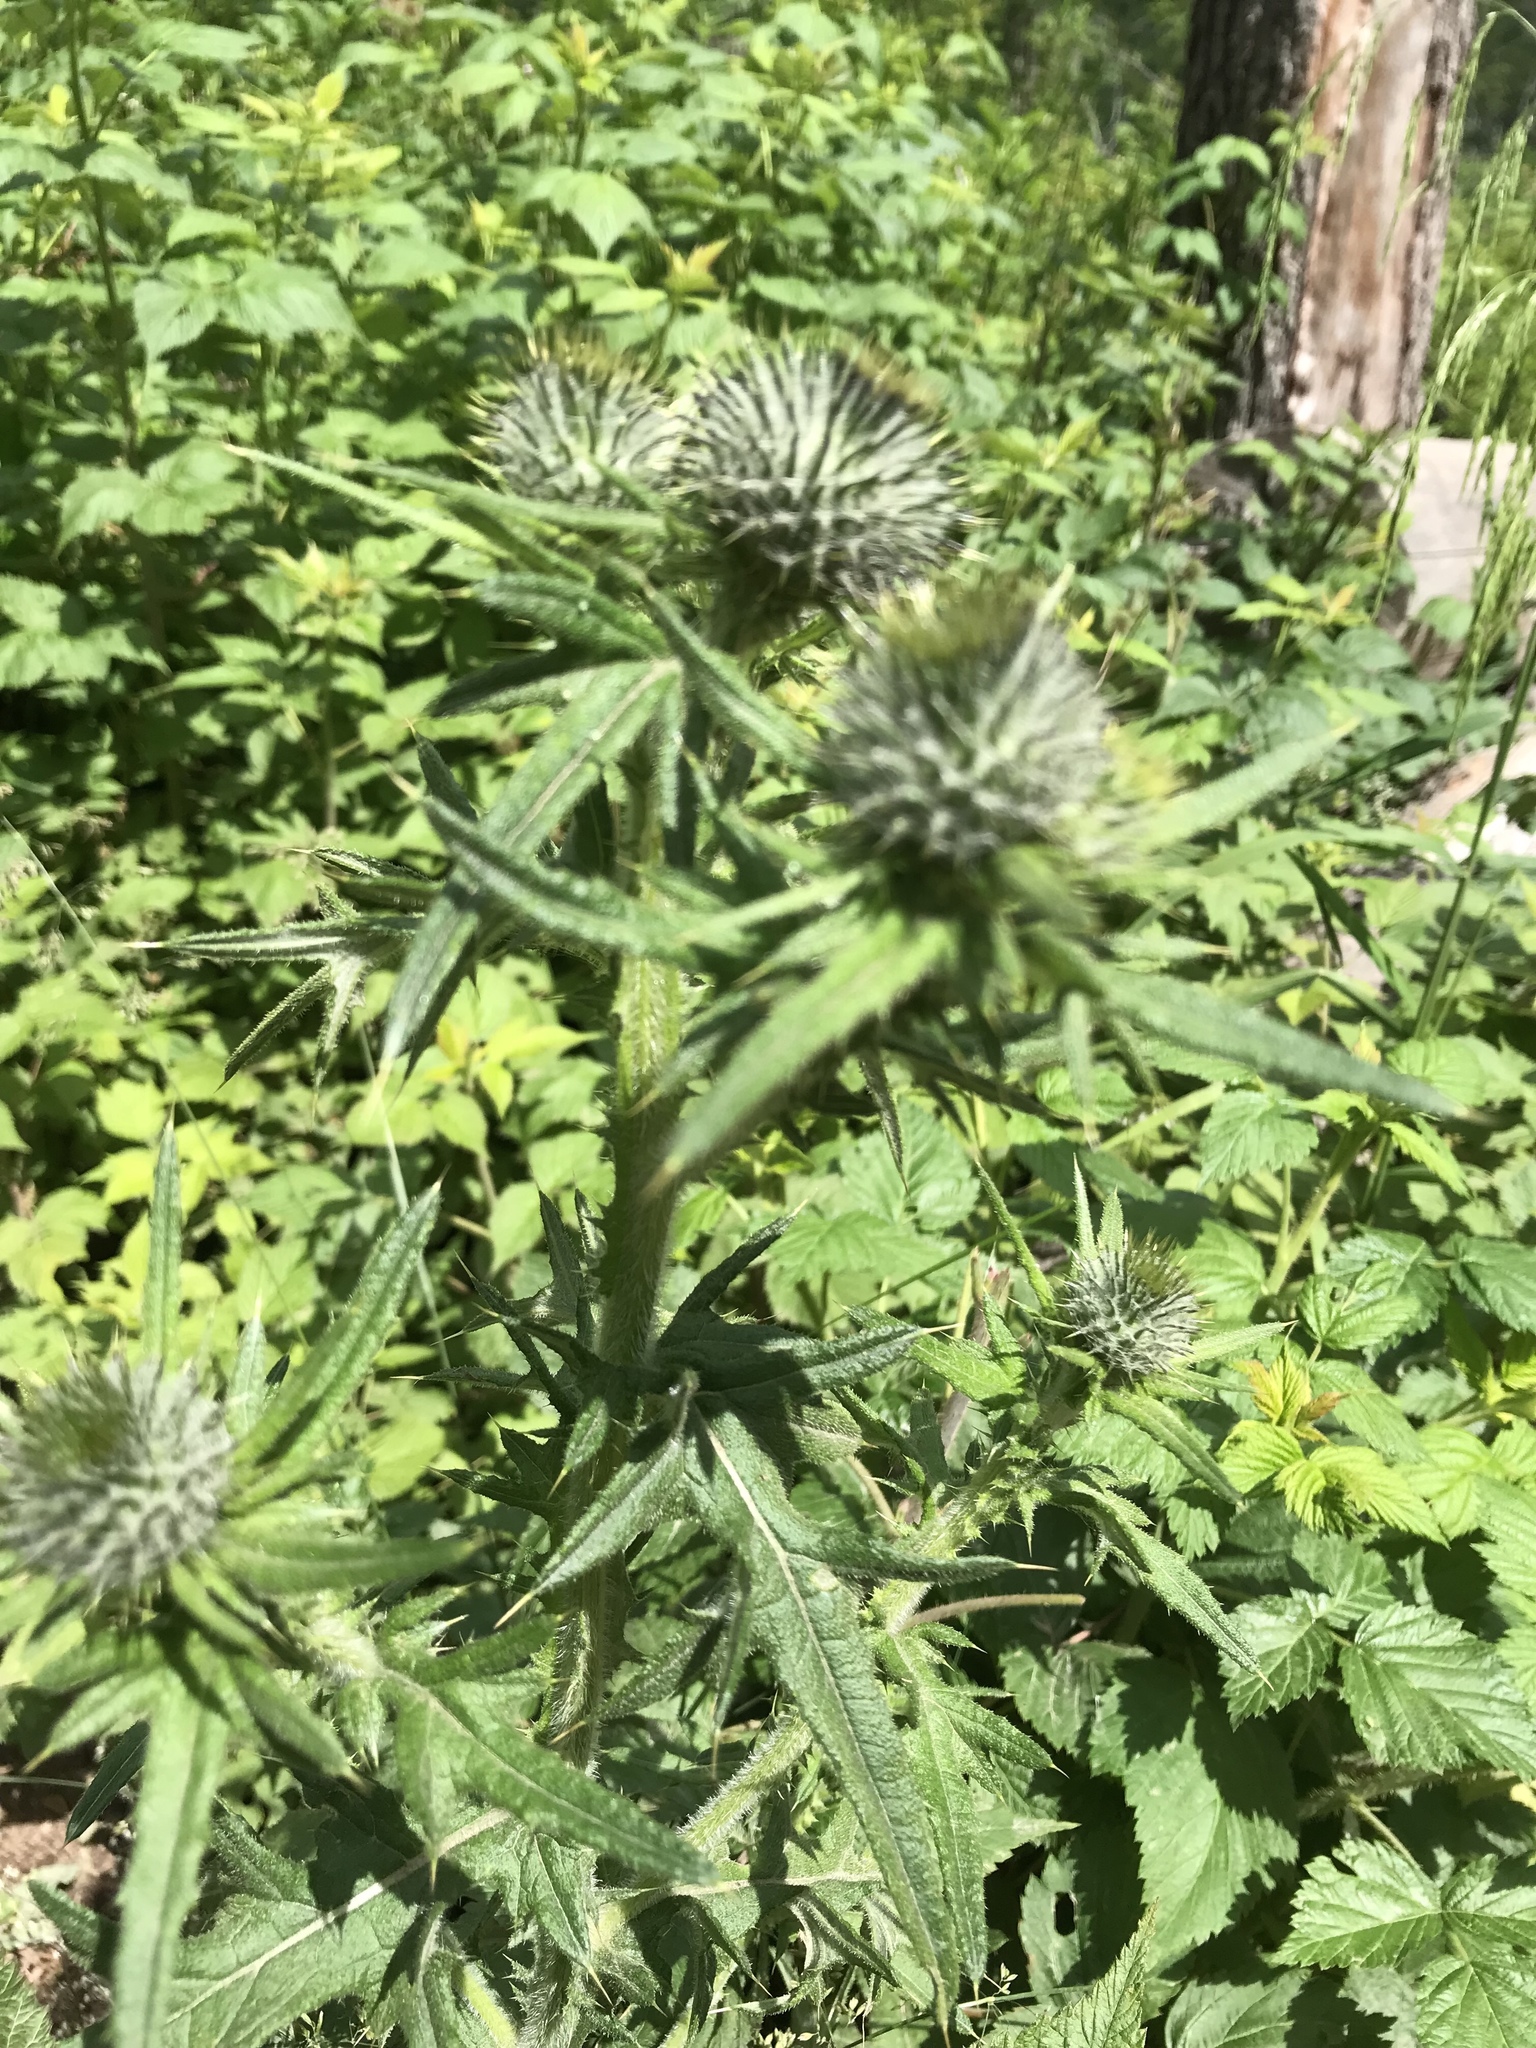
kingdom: Plantae
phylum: Tracheophyta
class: Magnoliopsida
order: Asterales
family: Asteraceae
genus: Cirsium
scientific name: Cirsium vulgare
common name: Bull thistle
